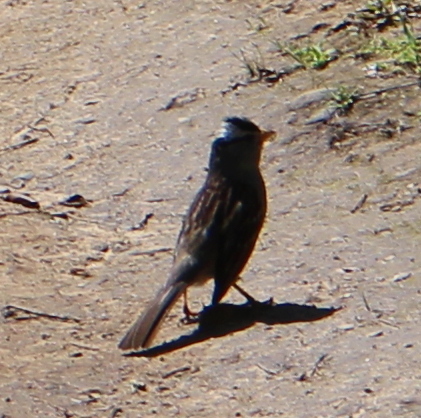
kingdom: Animalia
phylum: Chordata
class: Aves
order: Passeriformes
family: Passerellidae
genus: Zonotrichia
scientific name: Zonotrichia leucophrys
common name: White-crowned sparrow
